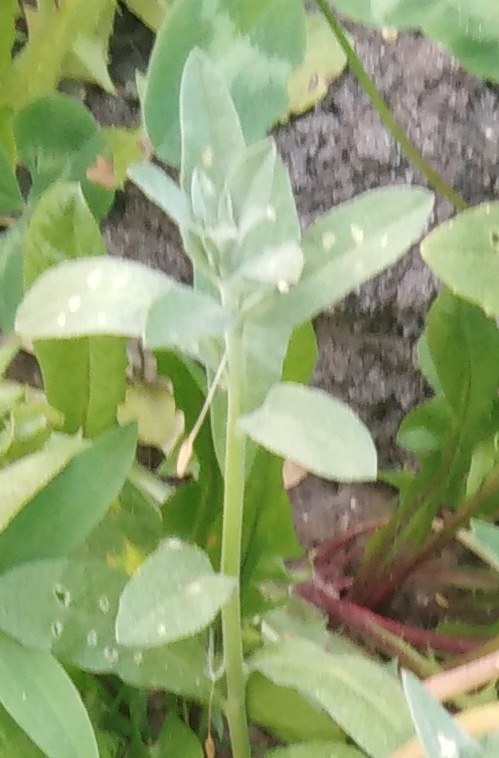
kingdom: Plantae
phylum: Tracheophyta
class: Magnoliopsida
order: Brassicales
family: Brassicaceae
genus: Berteroa
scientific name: Berteroa incana
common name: Hoary alison
